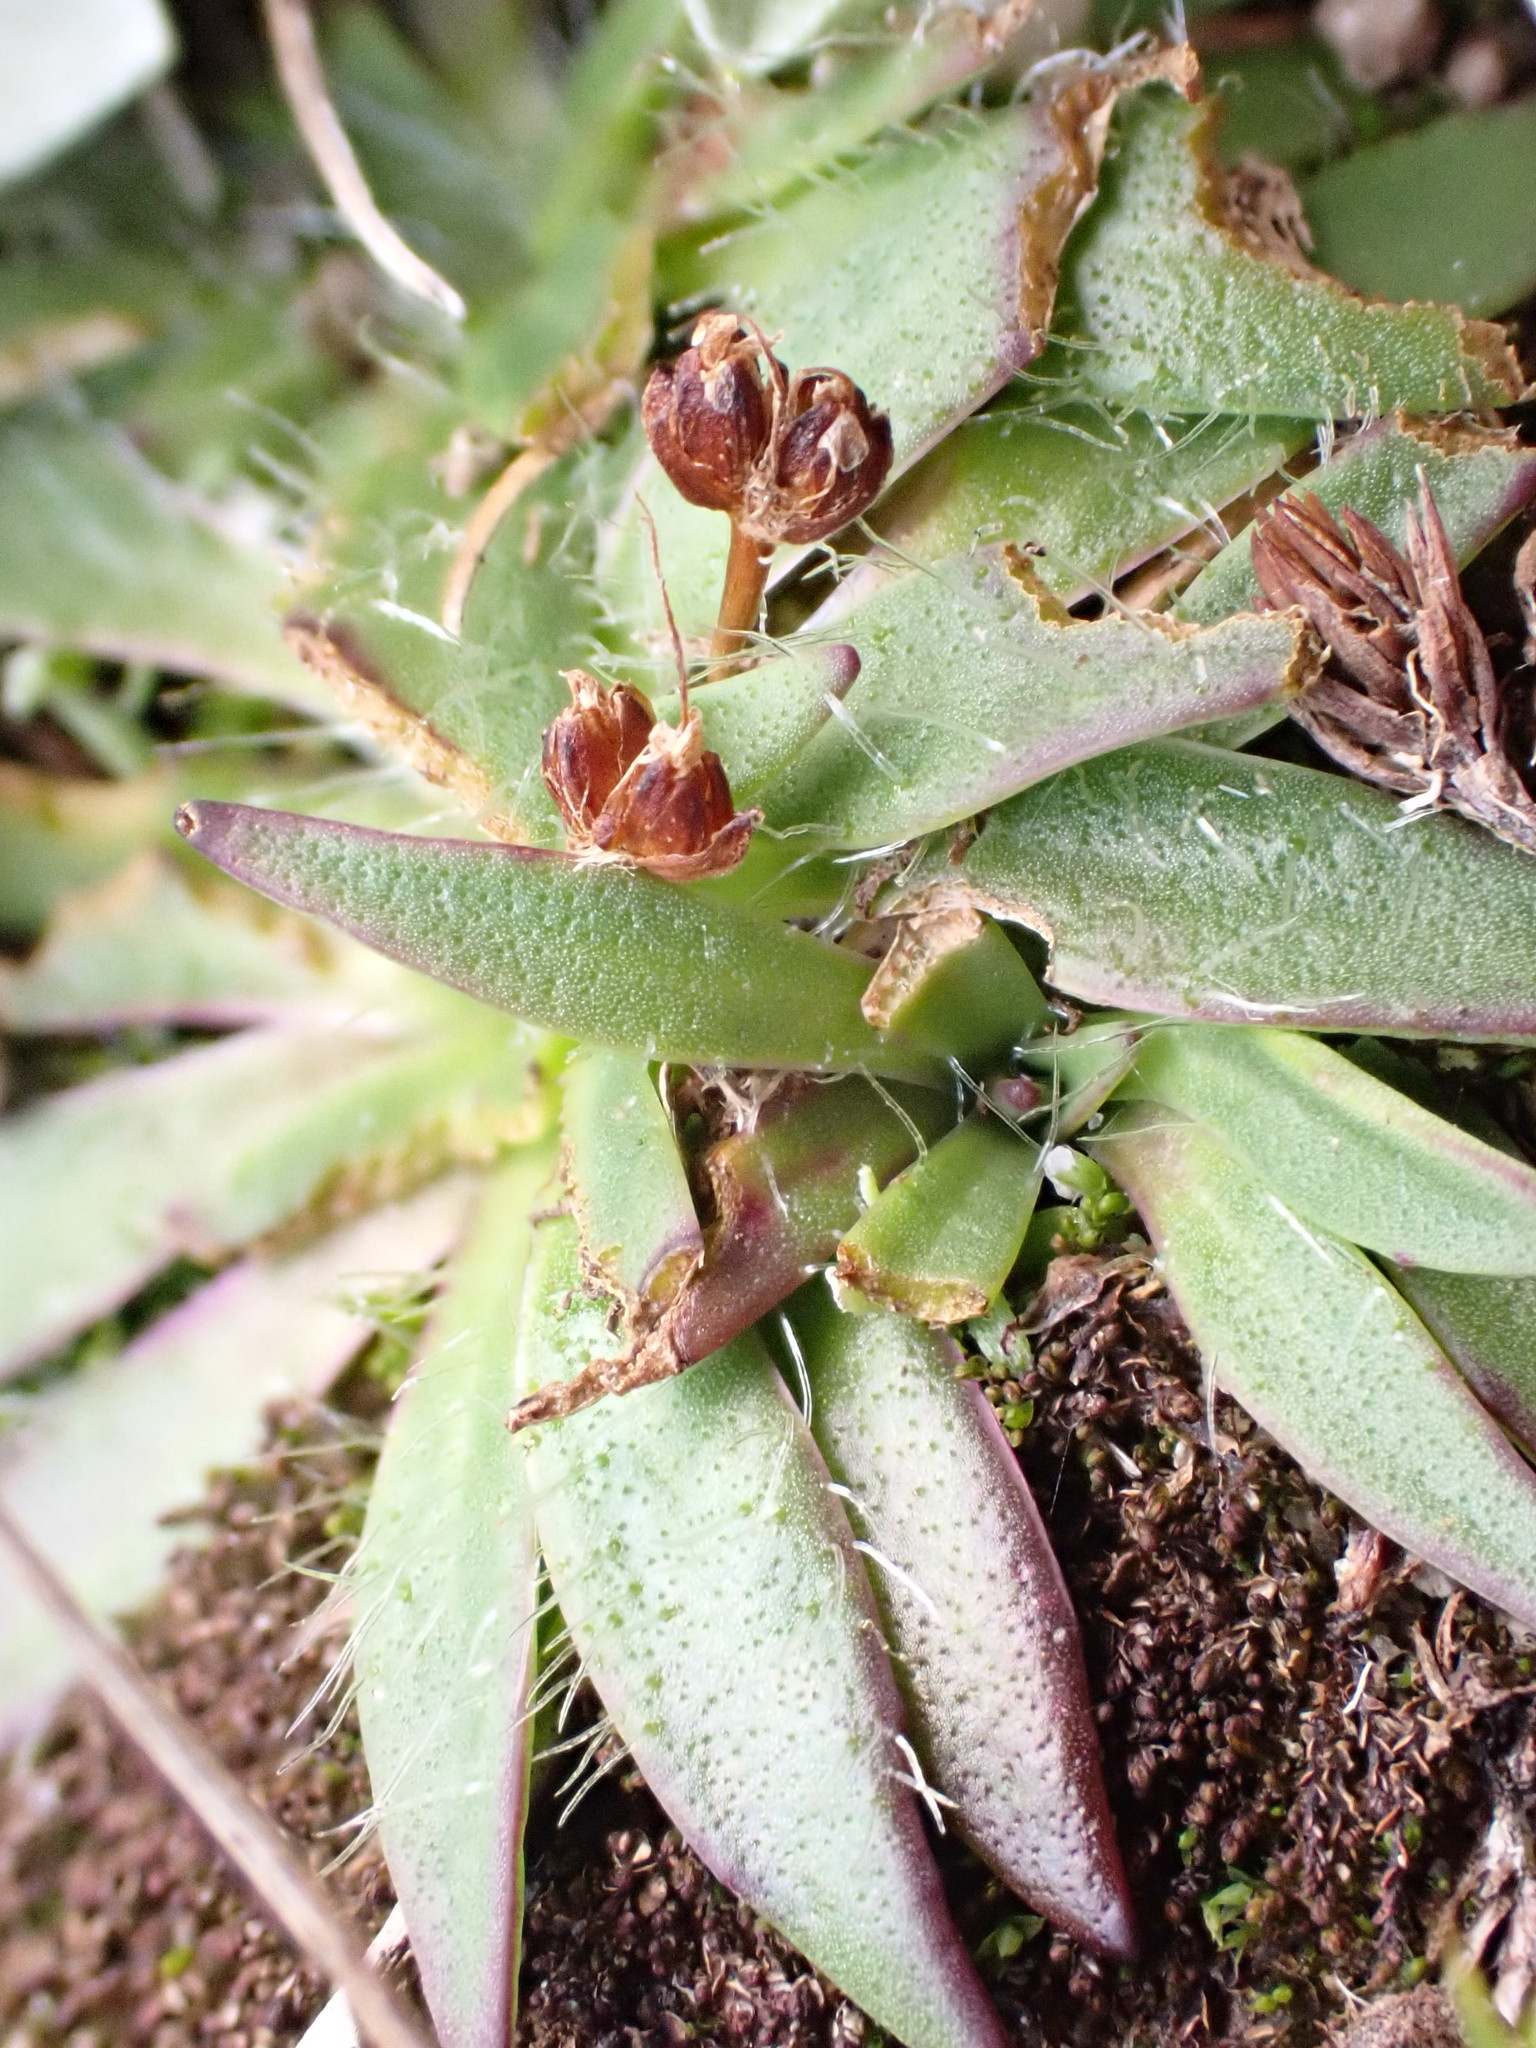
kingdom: Plantae
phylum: Tracheophyta
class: Magnoliopsida
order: Lamiales
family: Plantaginaceae
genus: Plantago
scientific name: Plantago glacialis
